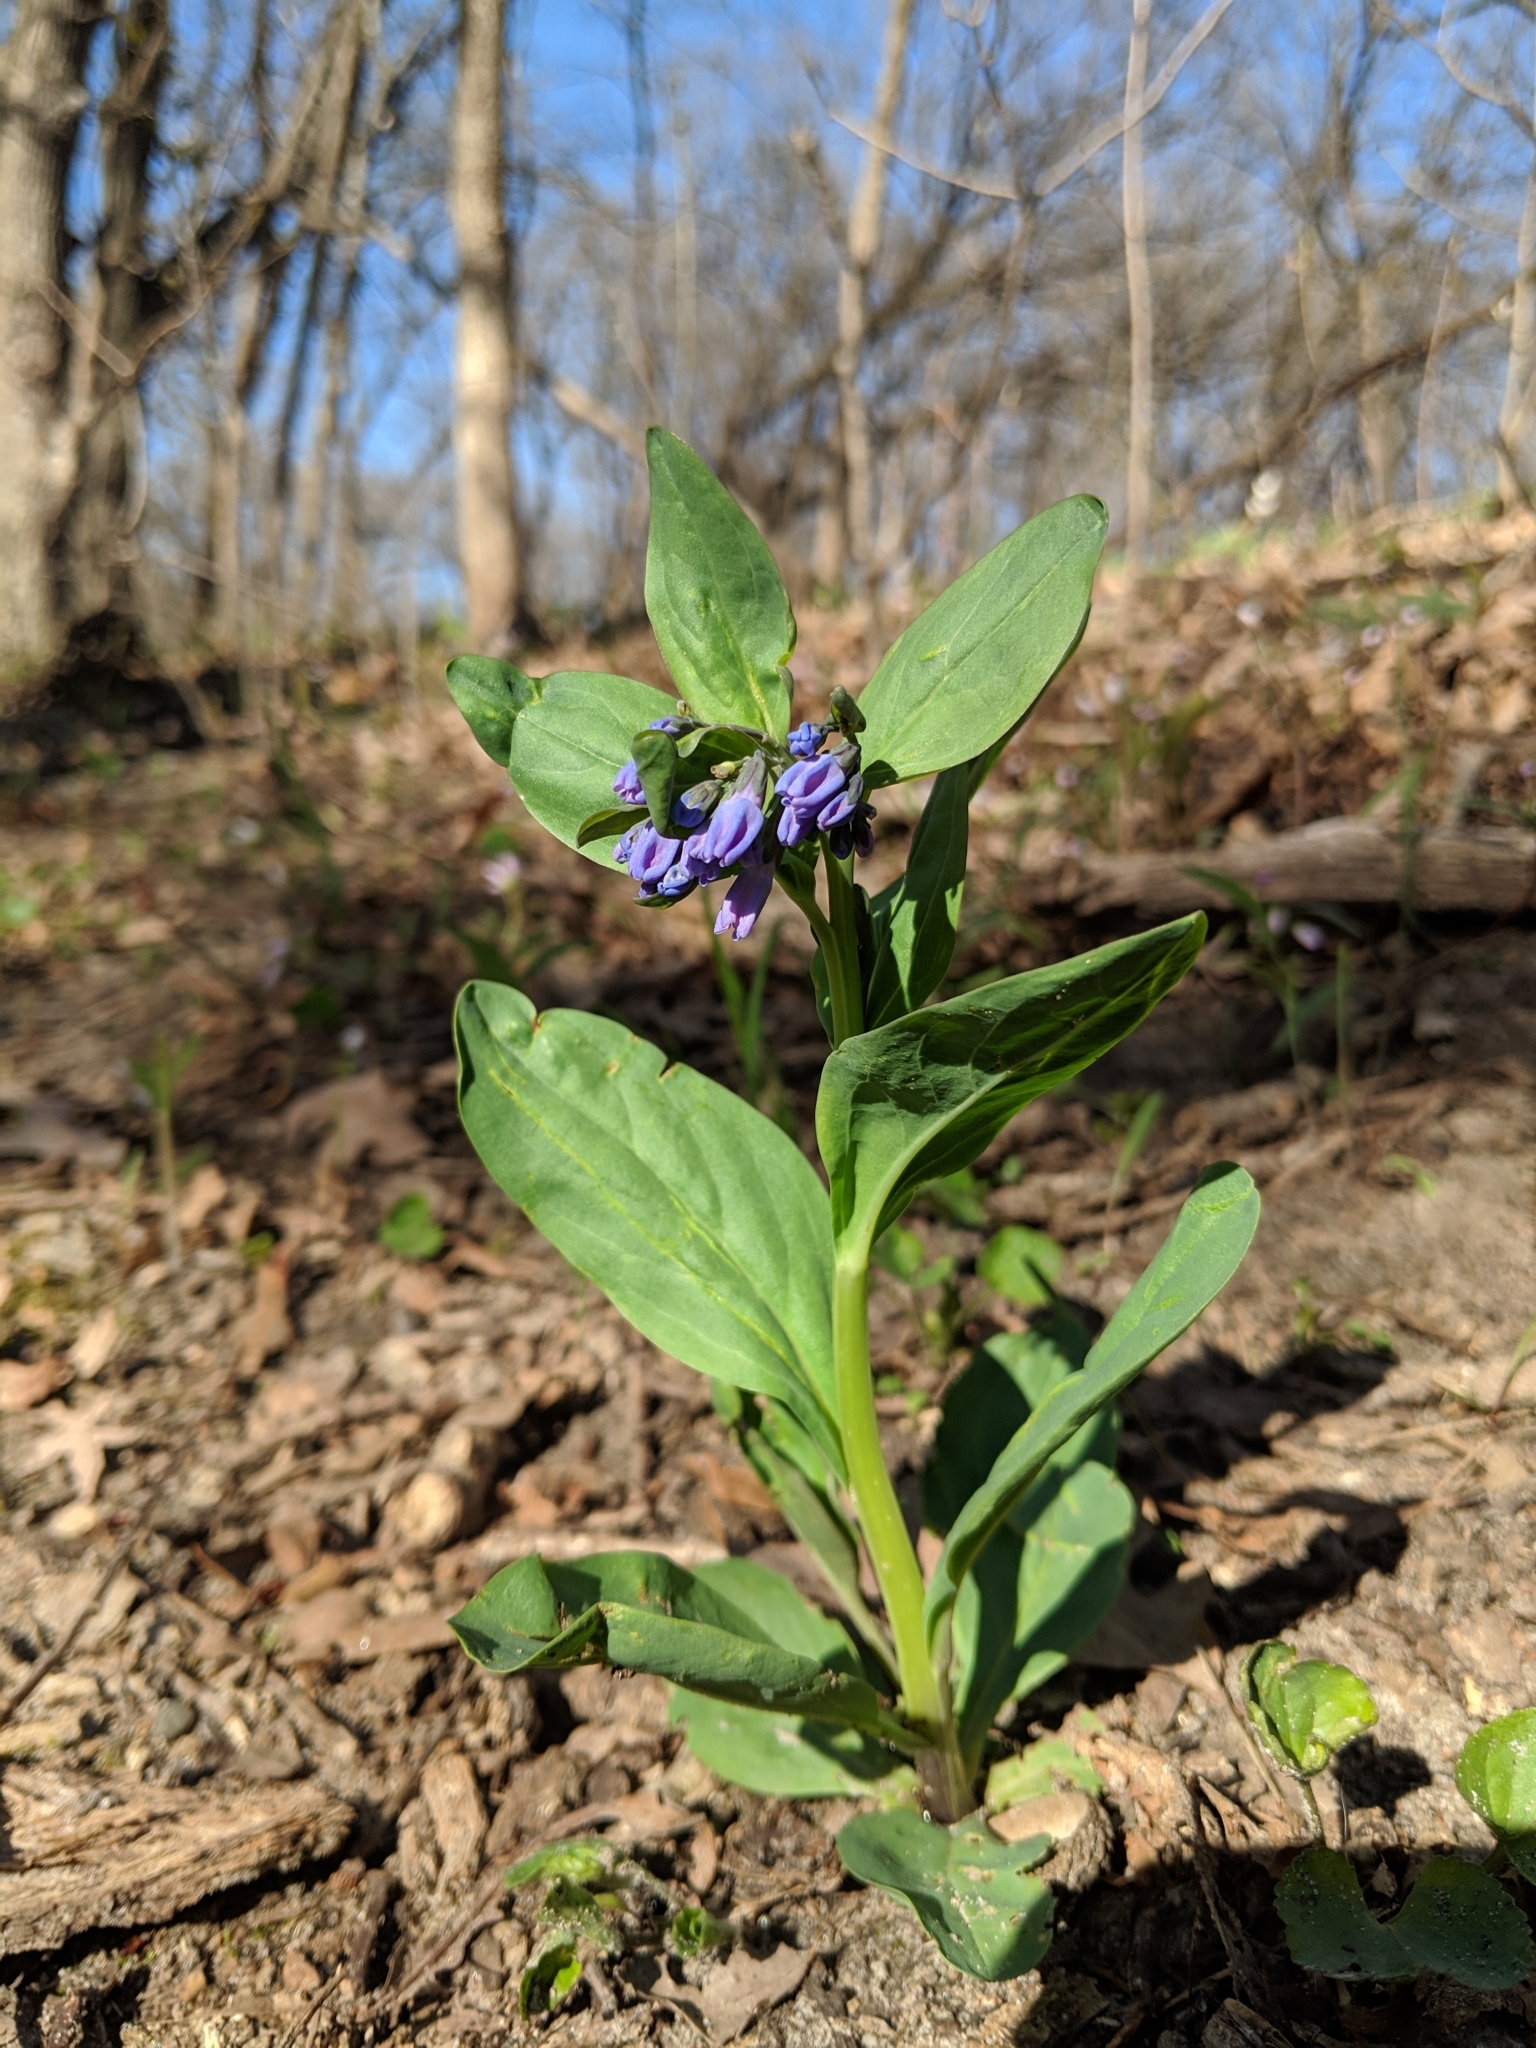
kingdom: Plantae
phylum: Tracheophyta
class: Magnoliopsida
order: Boraginales
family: Boraginaceae
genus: Mertensia
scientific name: Mertensia virginica
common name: Virginia bluebells
